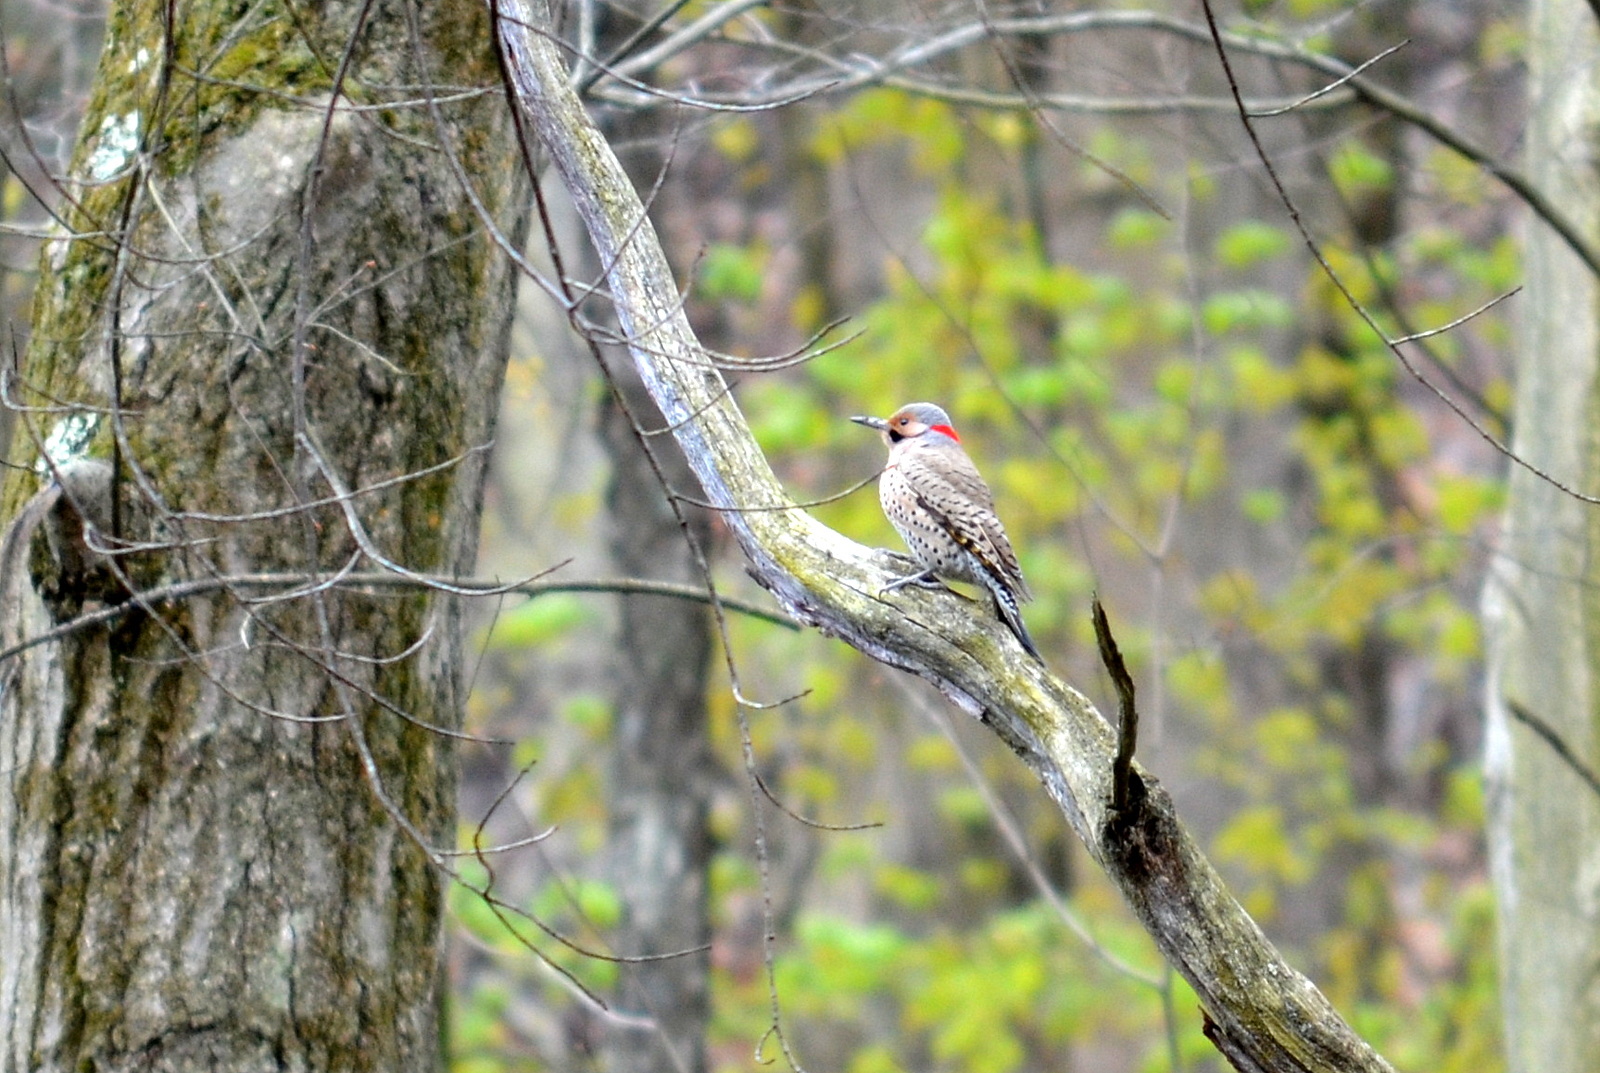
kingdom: Animalia
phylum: Chordata
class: Aves
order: Piciformes
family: Picidae
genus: Colaptes
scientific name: Colaptes auratus
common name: Northern flicker
